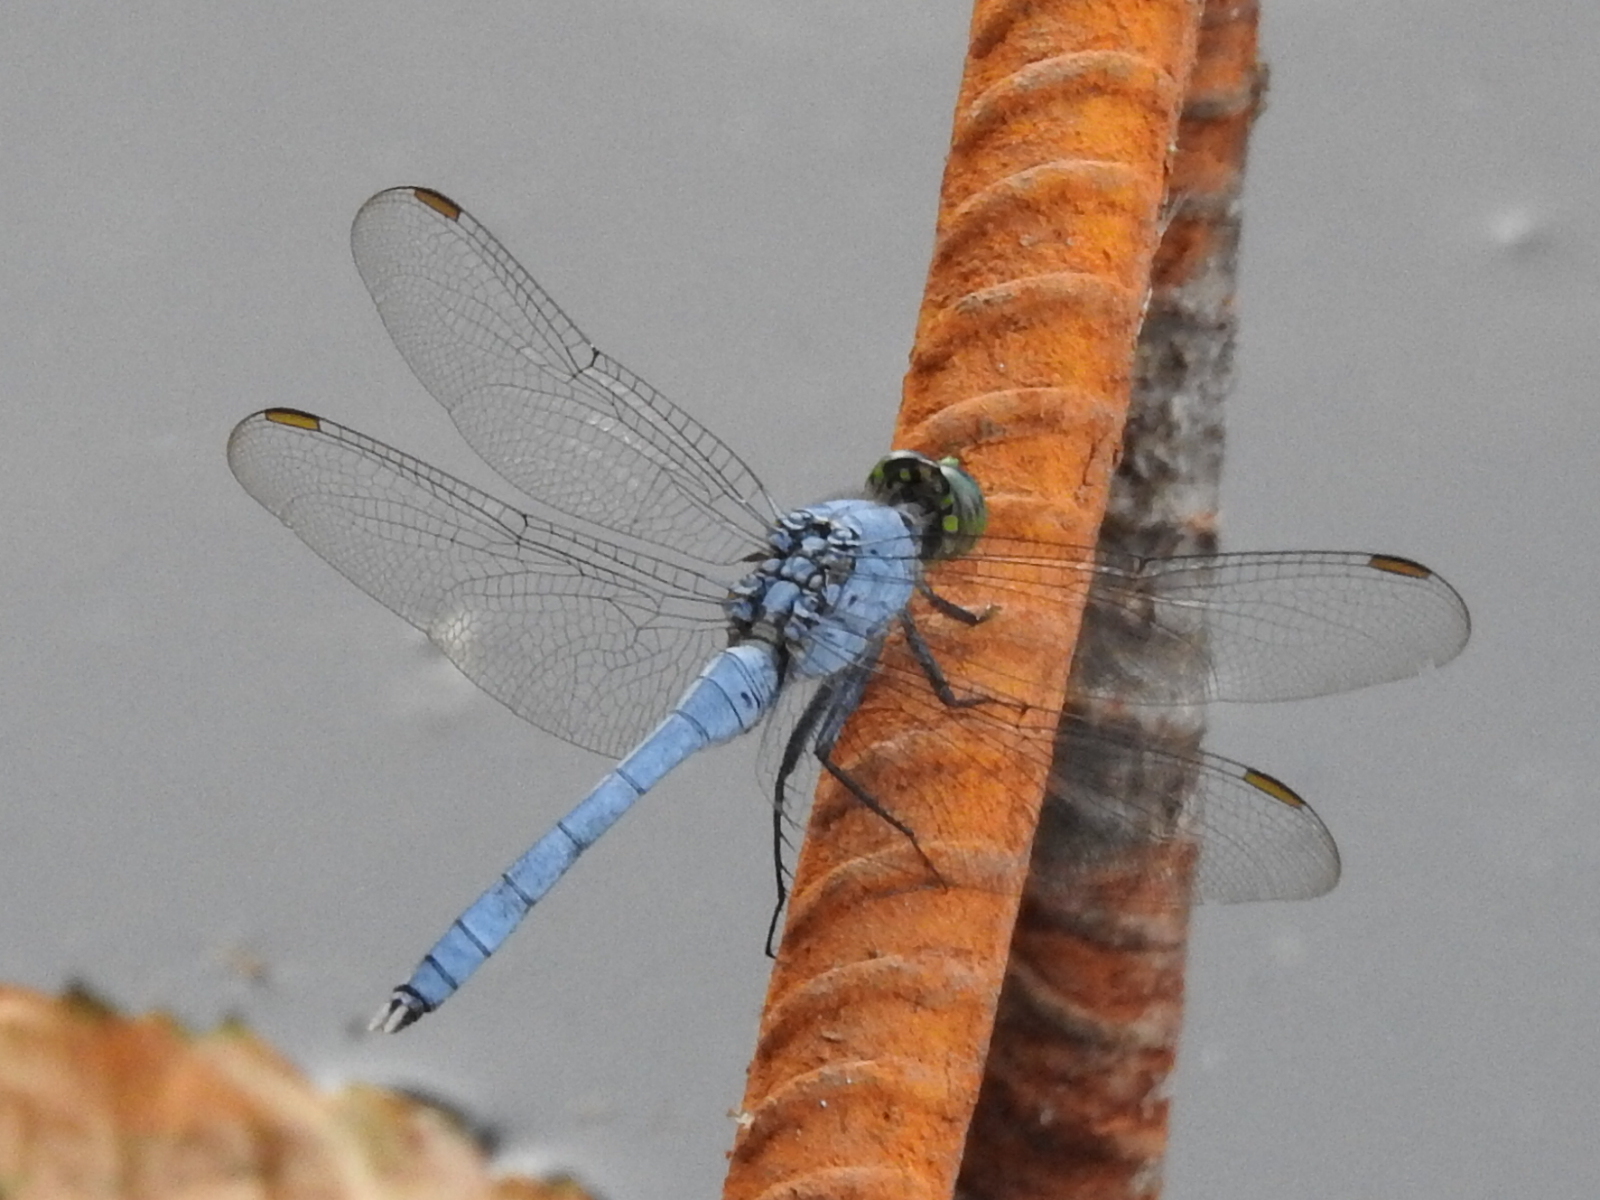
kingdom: Animalia
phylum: Arthropoda
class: Insecta
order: Odonata
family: Libellulidae
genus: Erythemis
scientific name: Erythemis simplicicollis
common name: Eastern pondhawk
